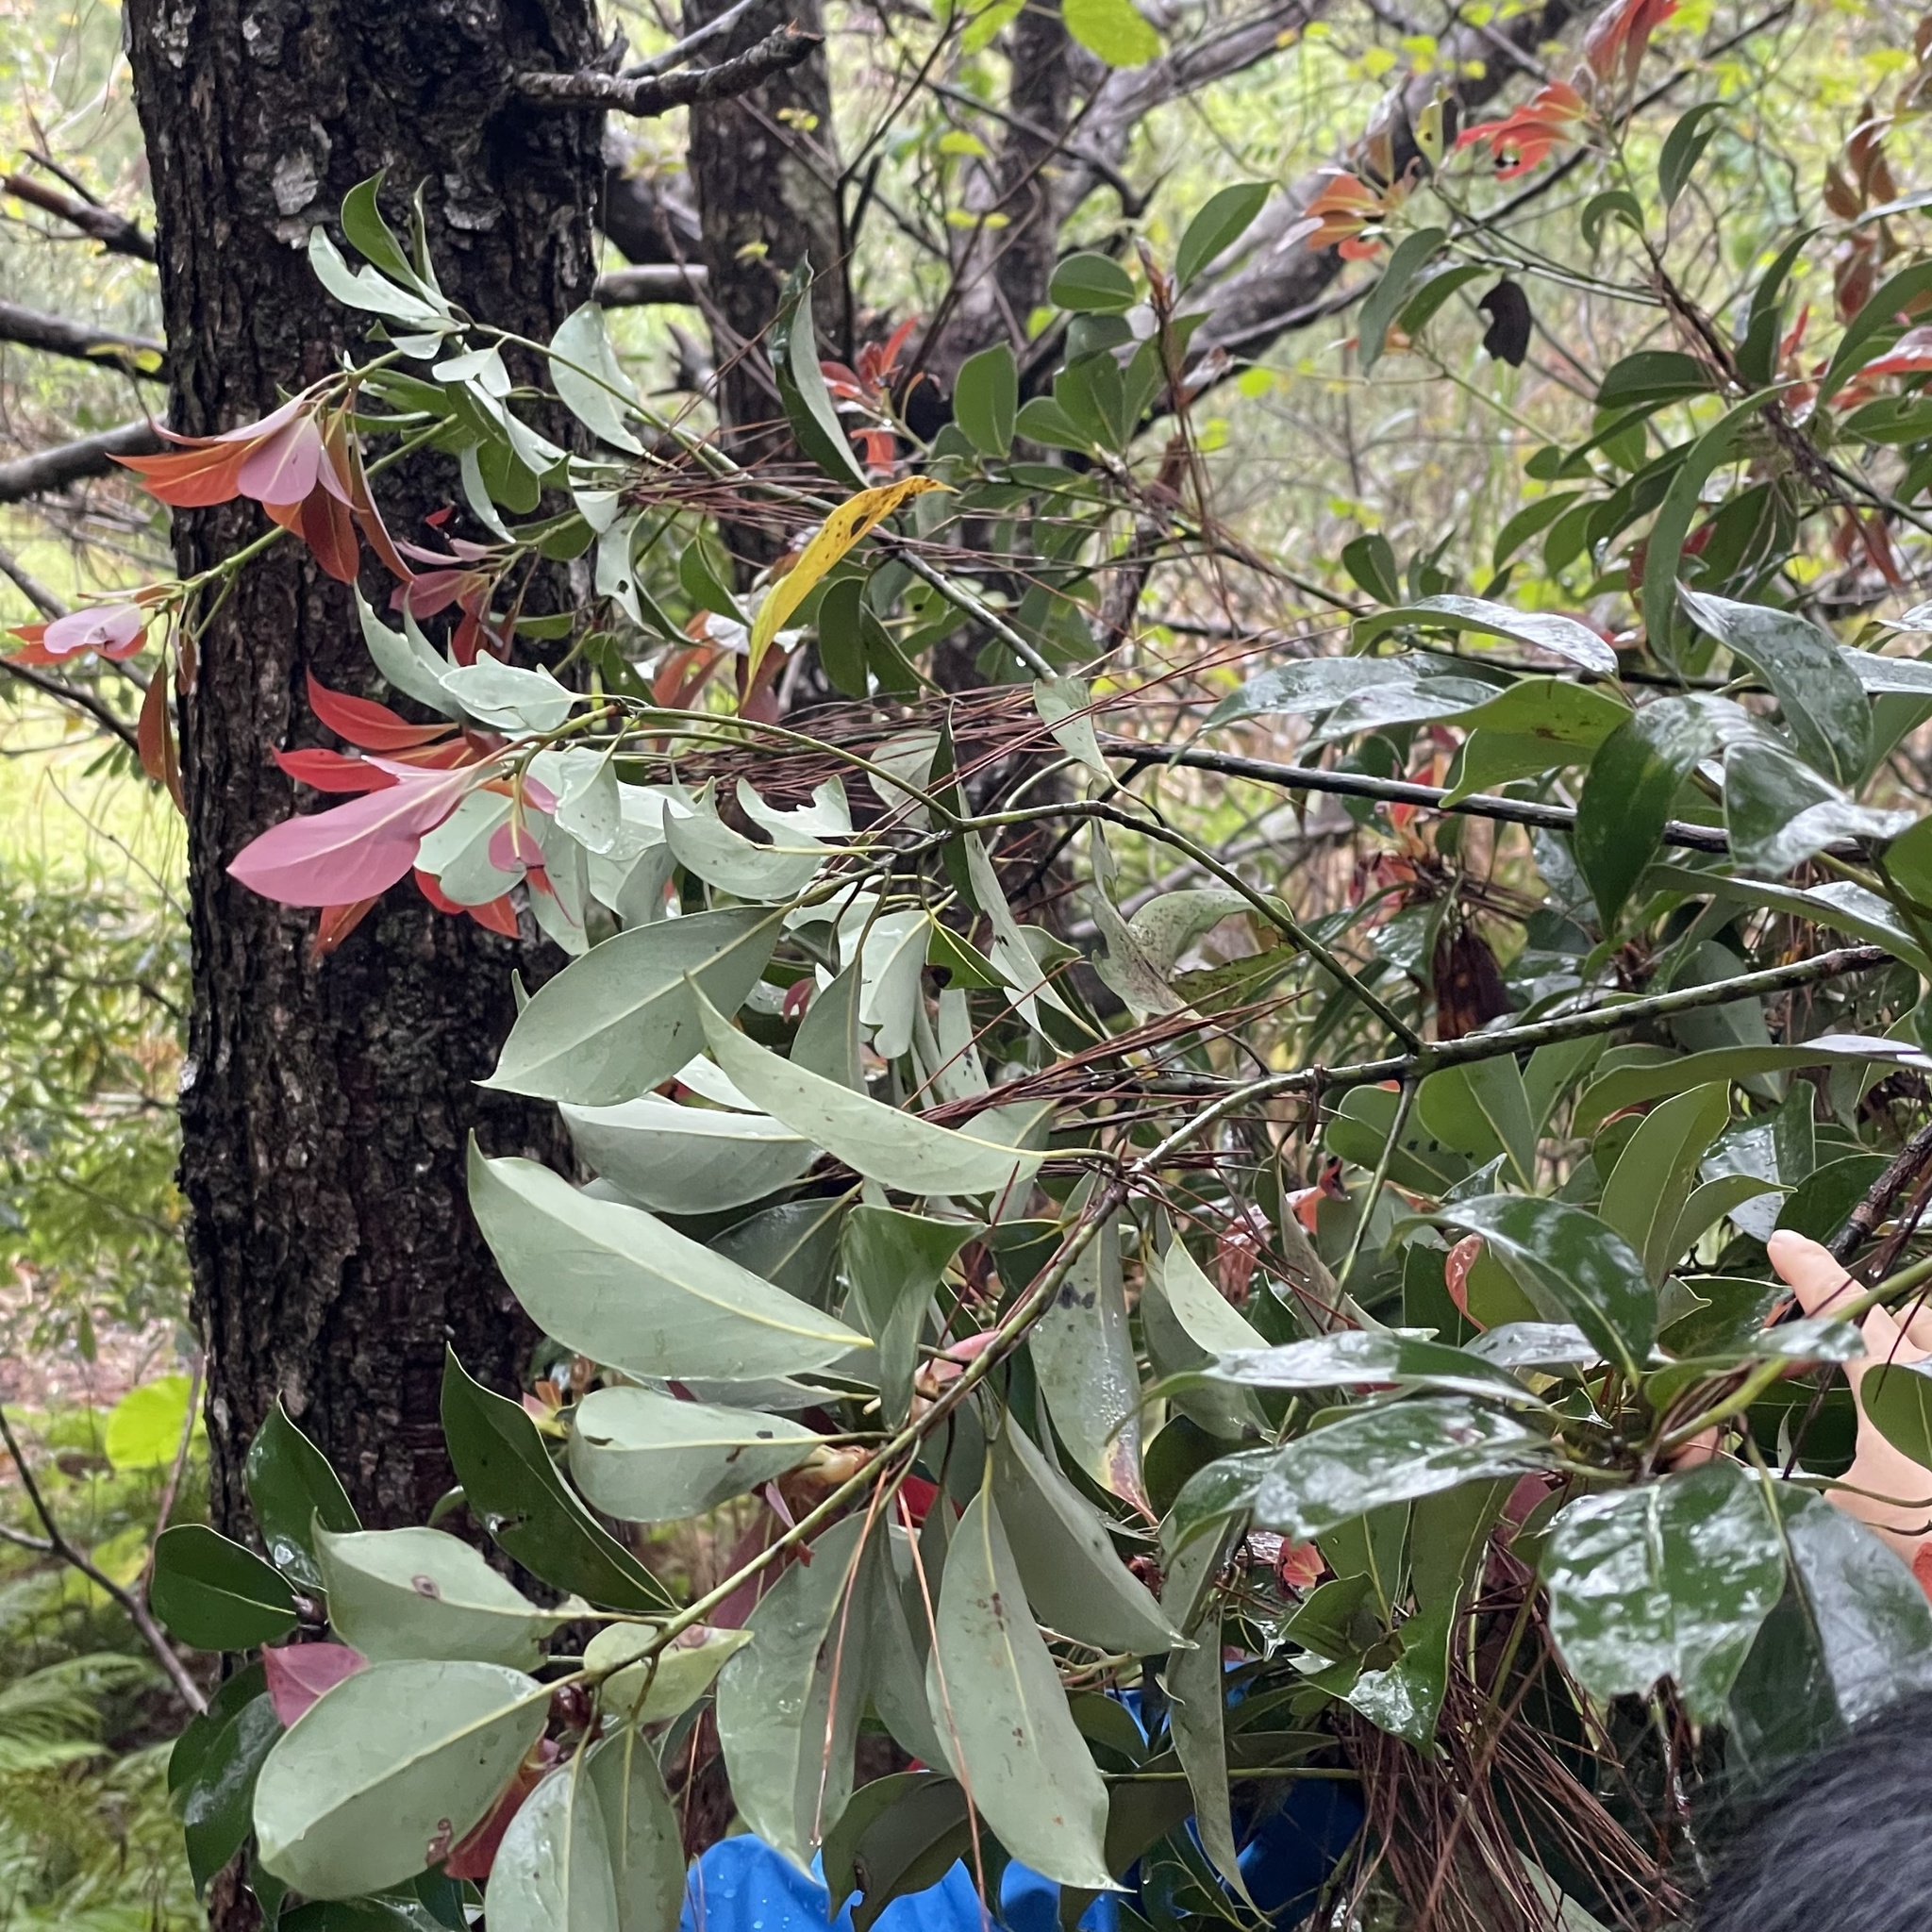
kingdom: Plantae
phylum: Tracheophyta
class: Magnoliopsida
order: Laurales
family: Lauraceae
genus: Machilus
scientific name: Machilus thunbergii
